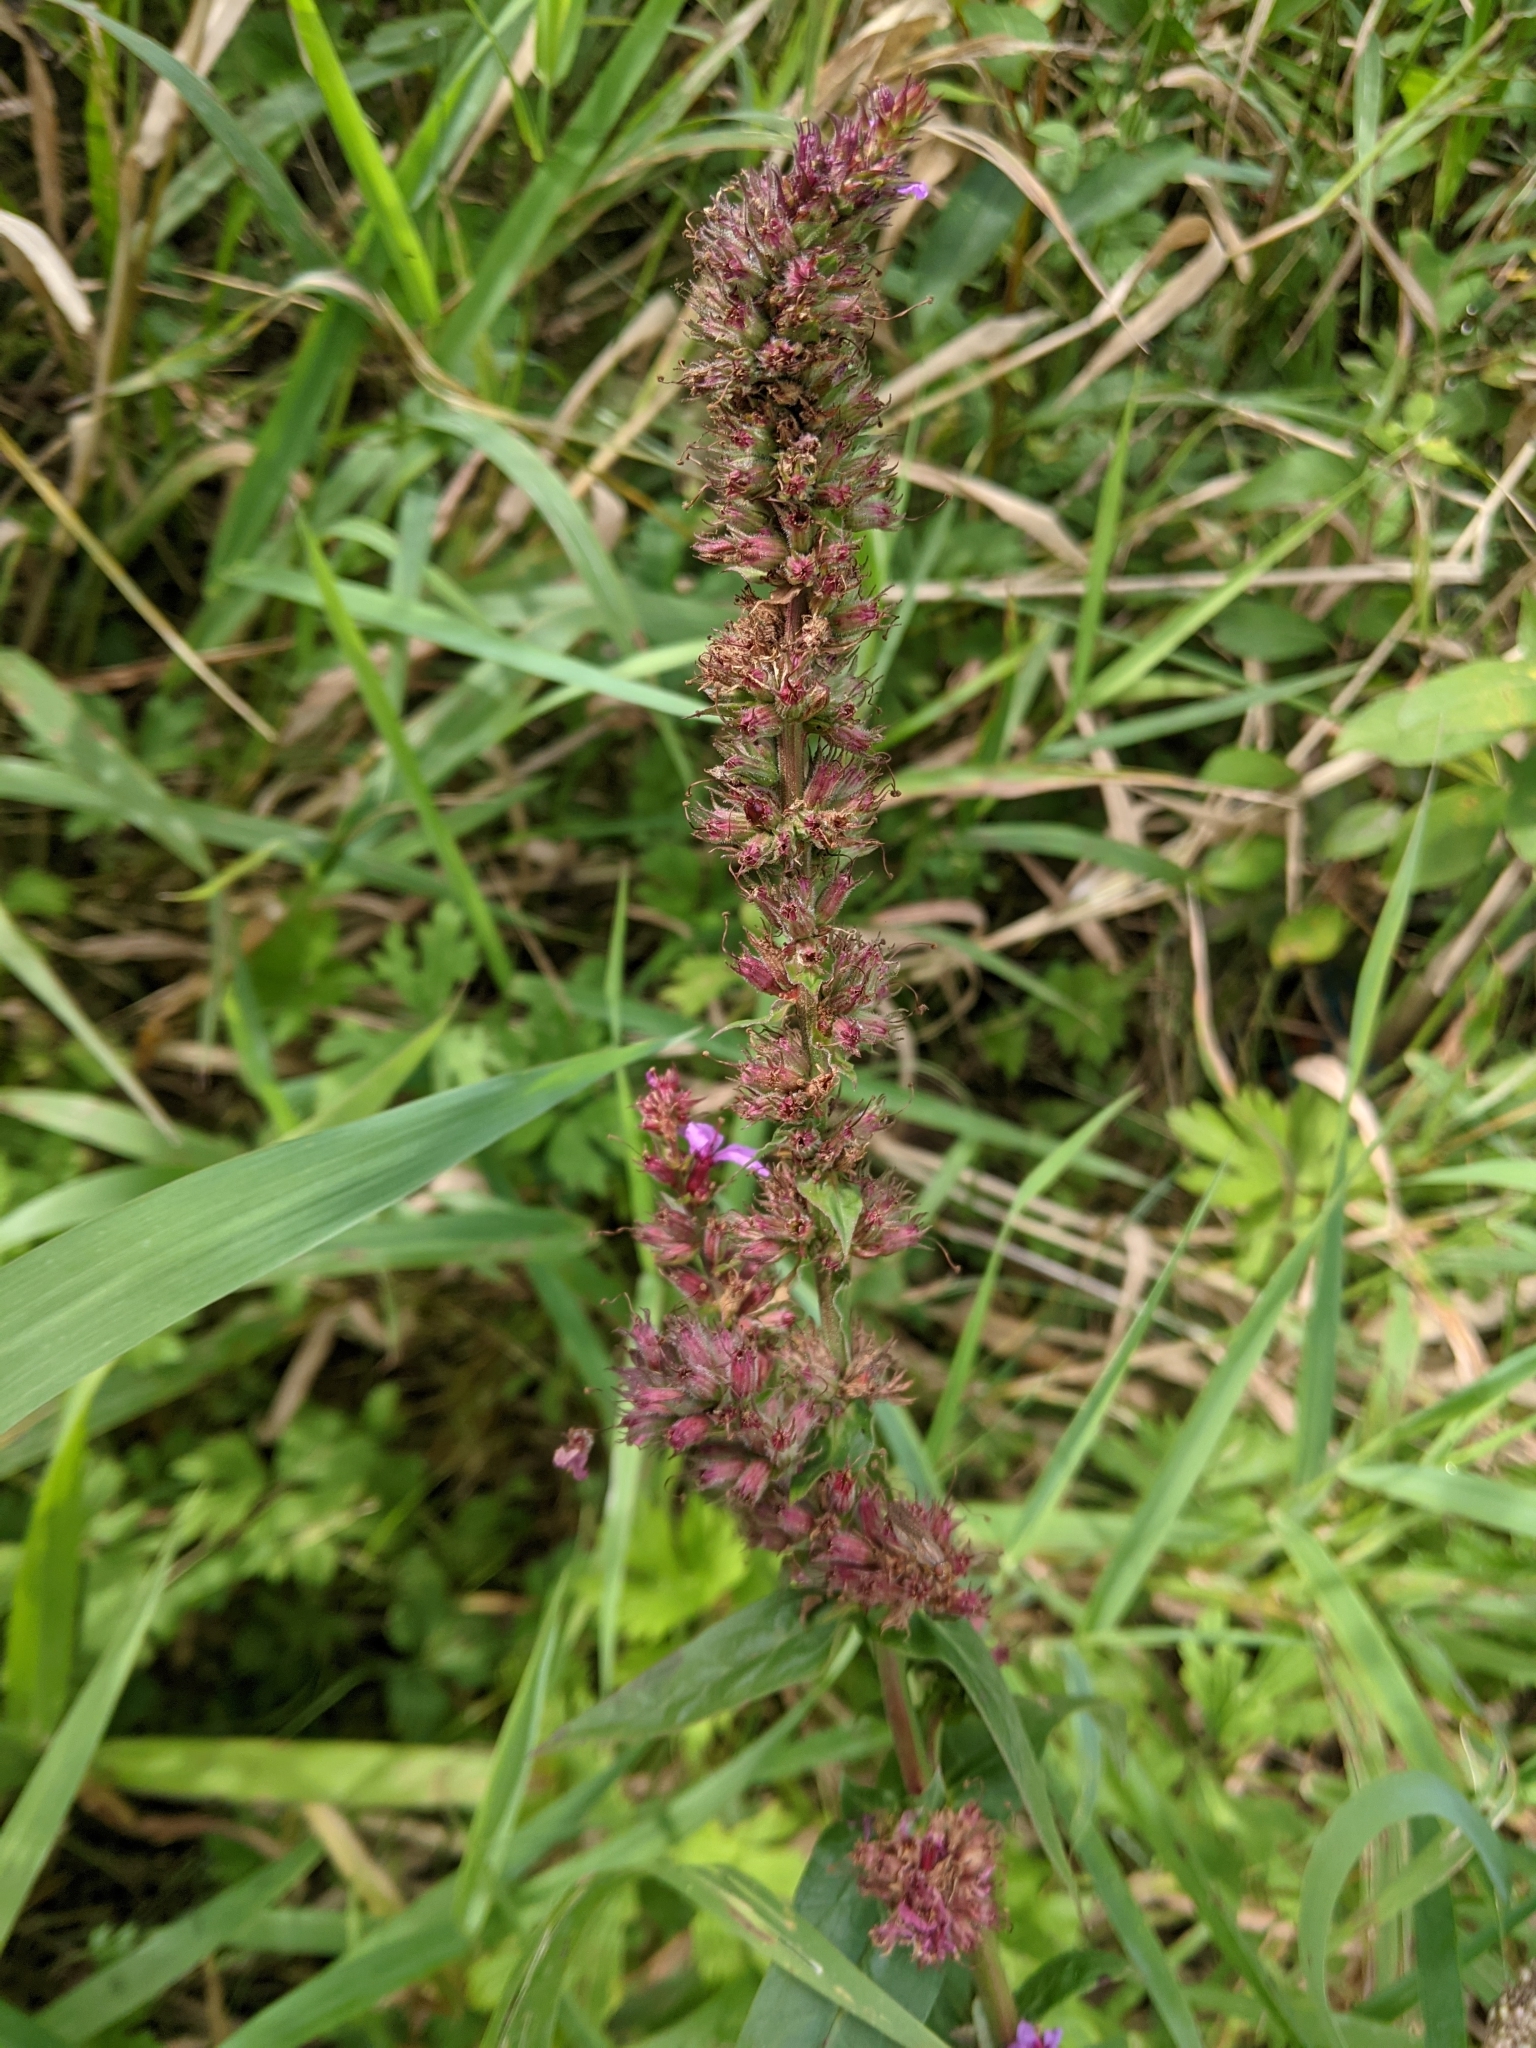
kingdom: Plantae
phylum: Tracheophyta
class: Magnoliopsida
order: Myrtales
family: Lythraceae
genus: Lythrum
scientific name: Lythrum salicaria
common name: Purple loosestrife
